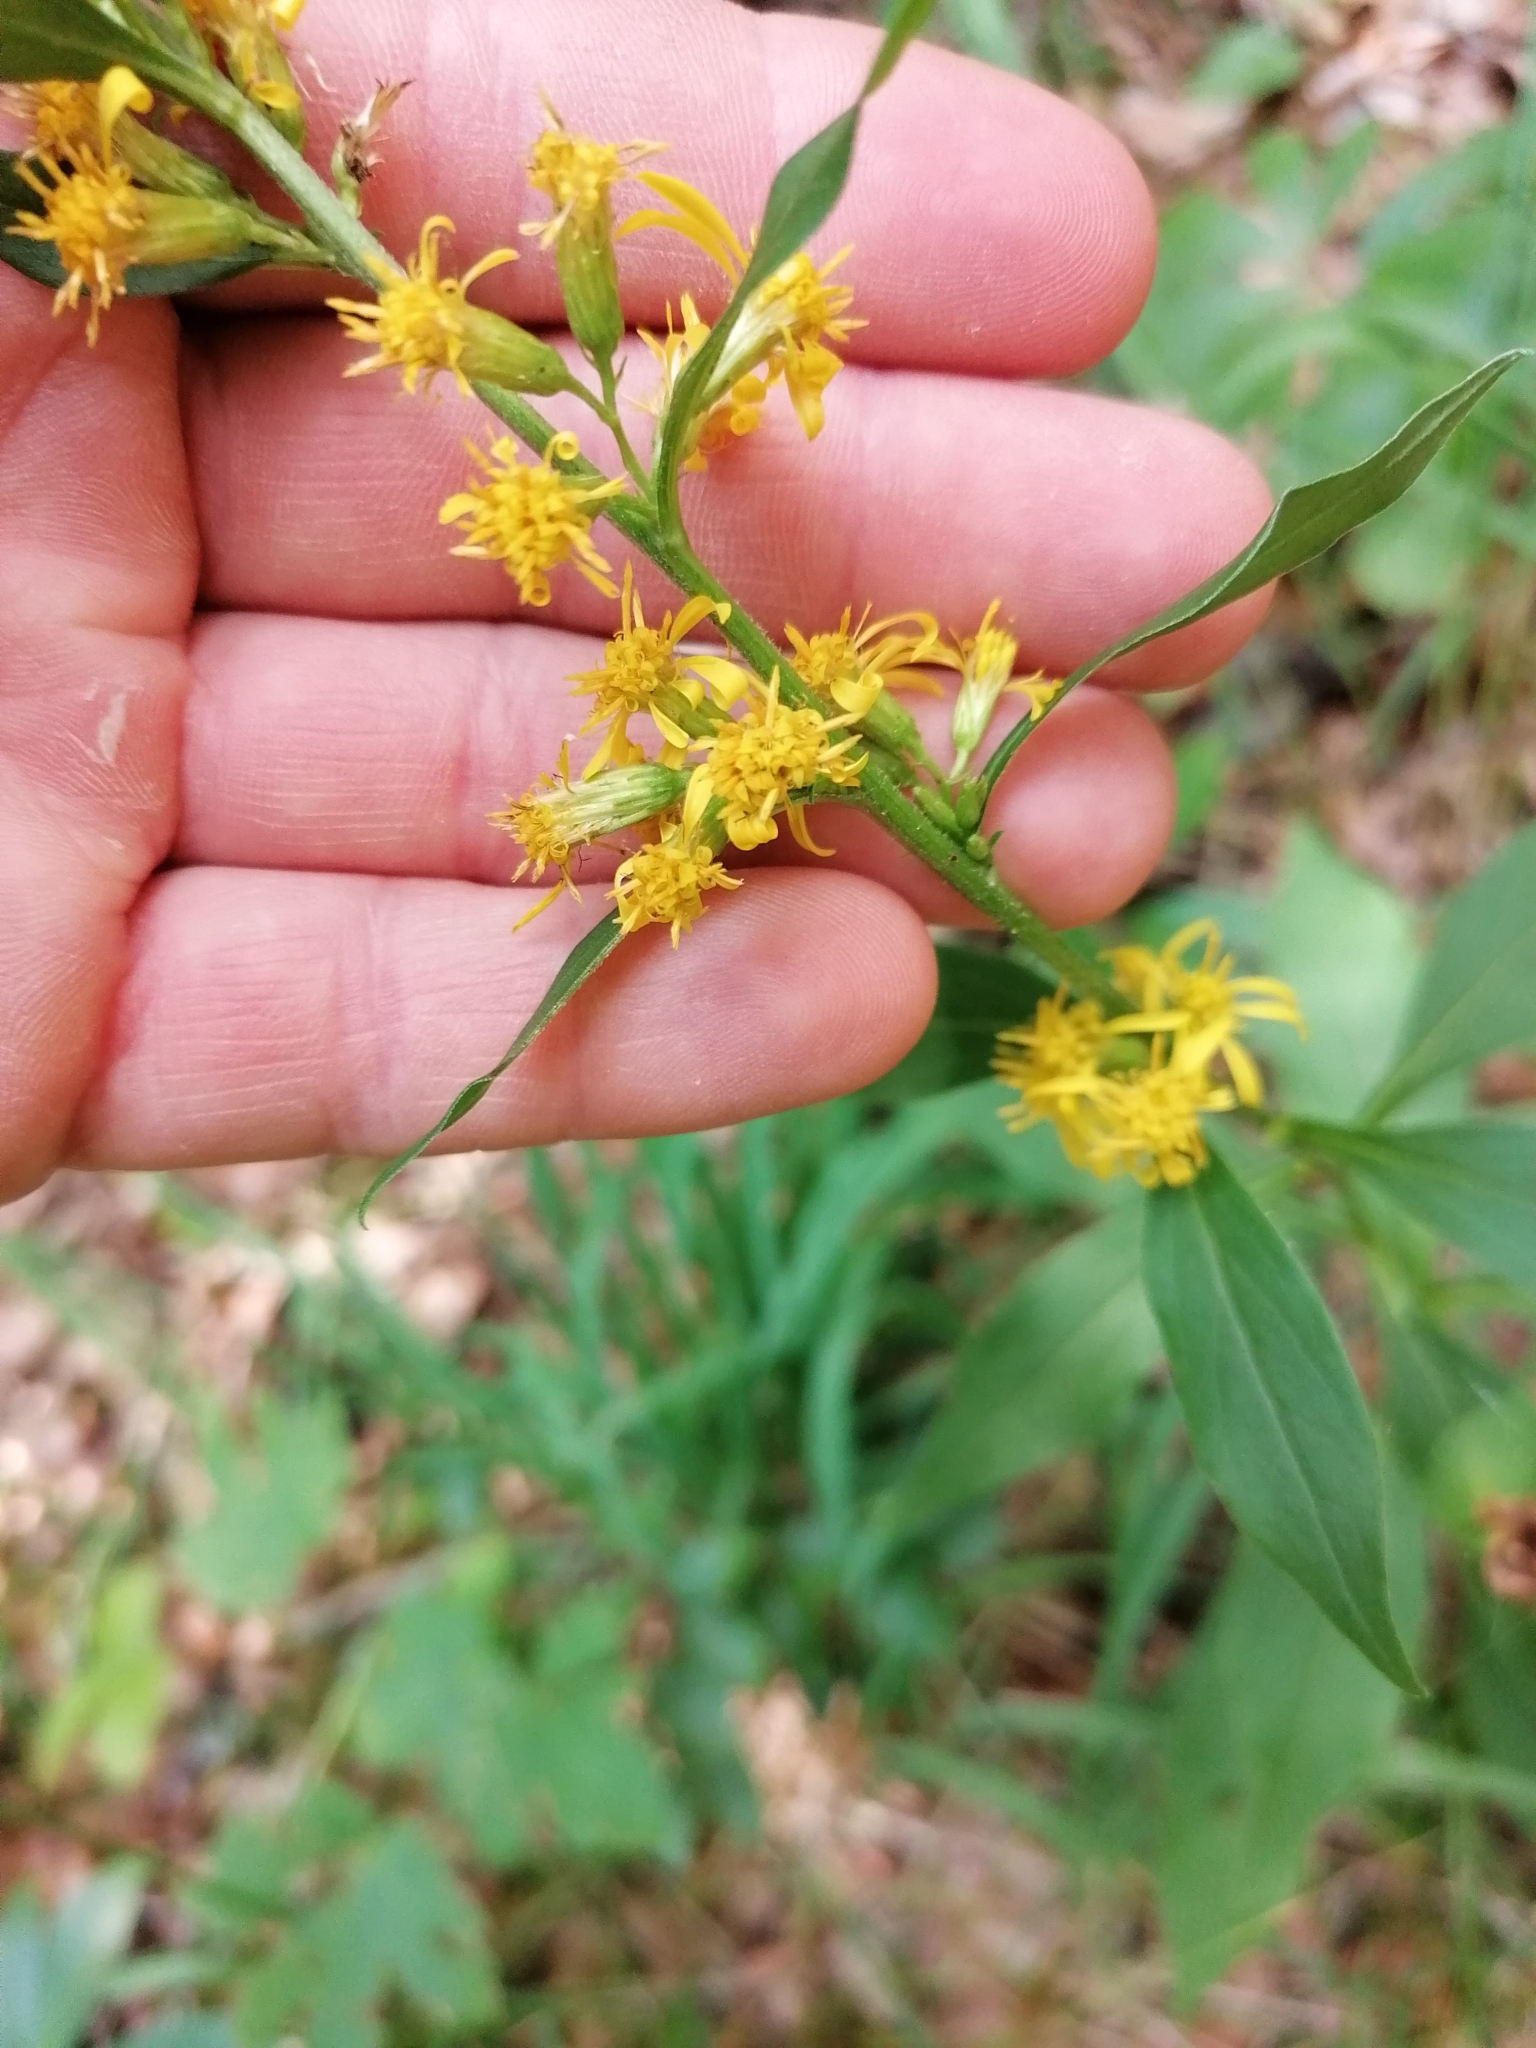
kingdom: Plantae
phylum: Tracheophyta
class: Magnoliopsida
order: Asterales
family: Asteraceae
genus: Solidago
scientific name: Solidago virgaurea
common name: Goldenrod
